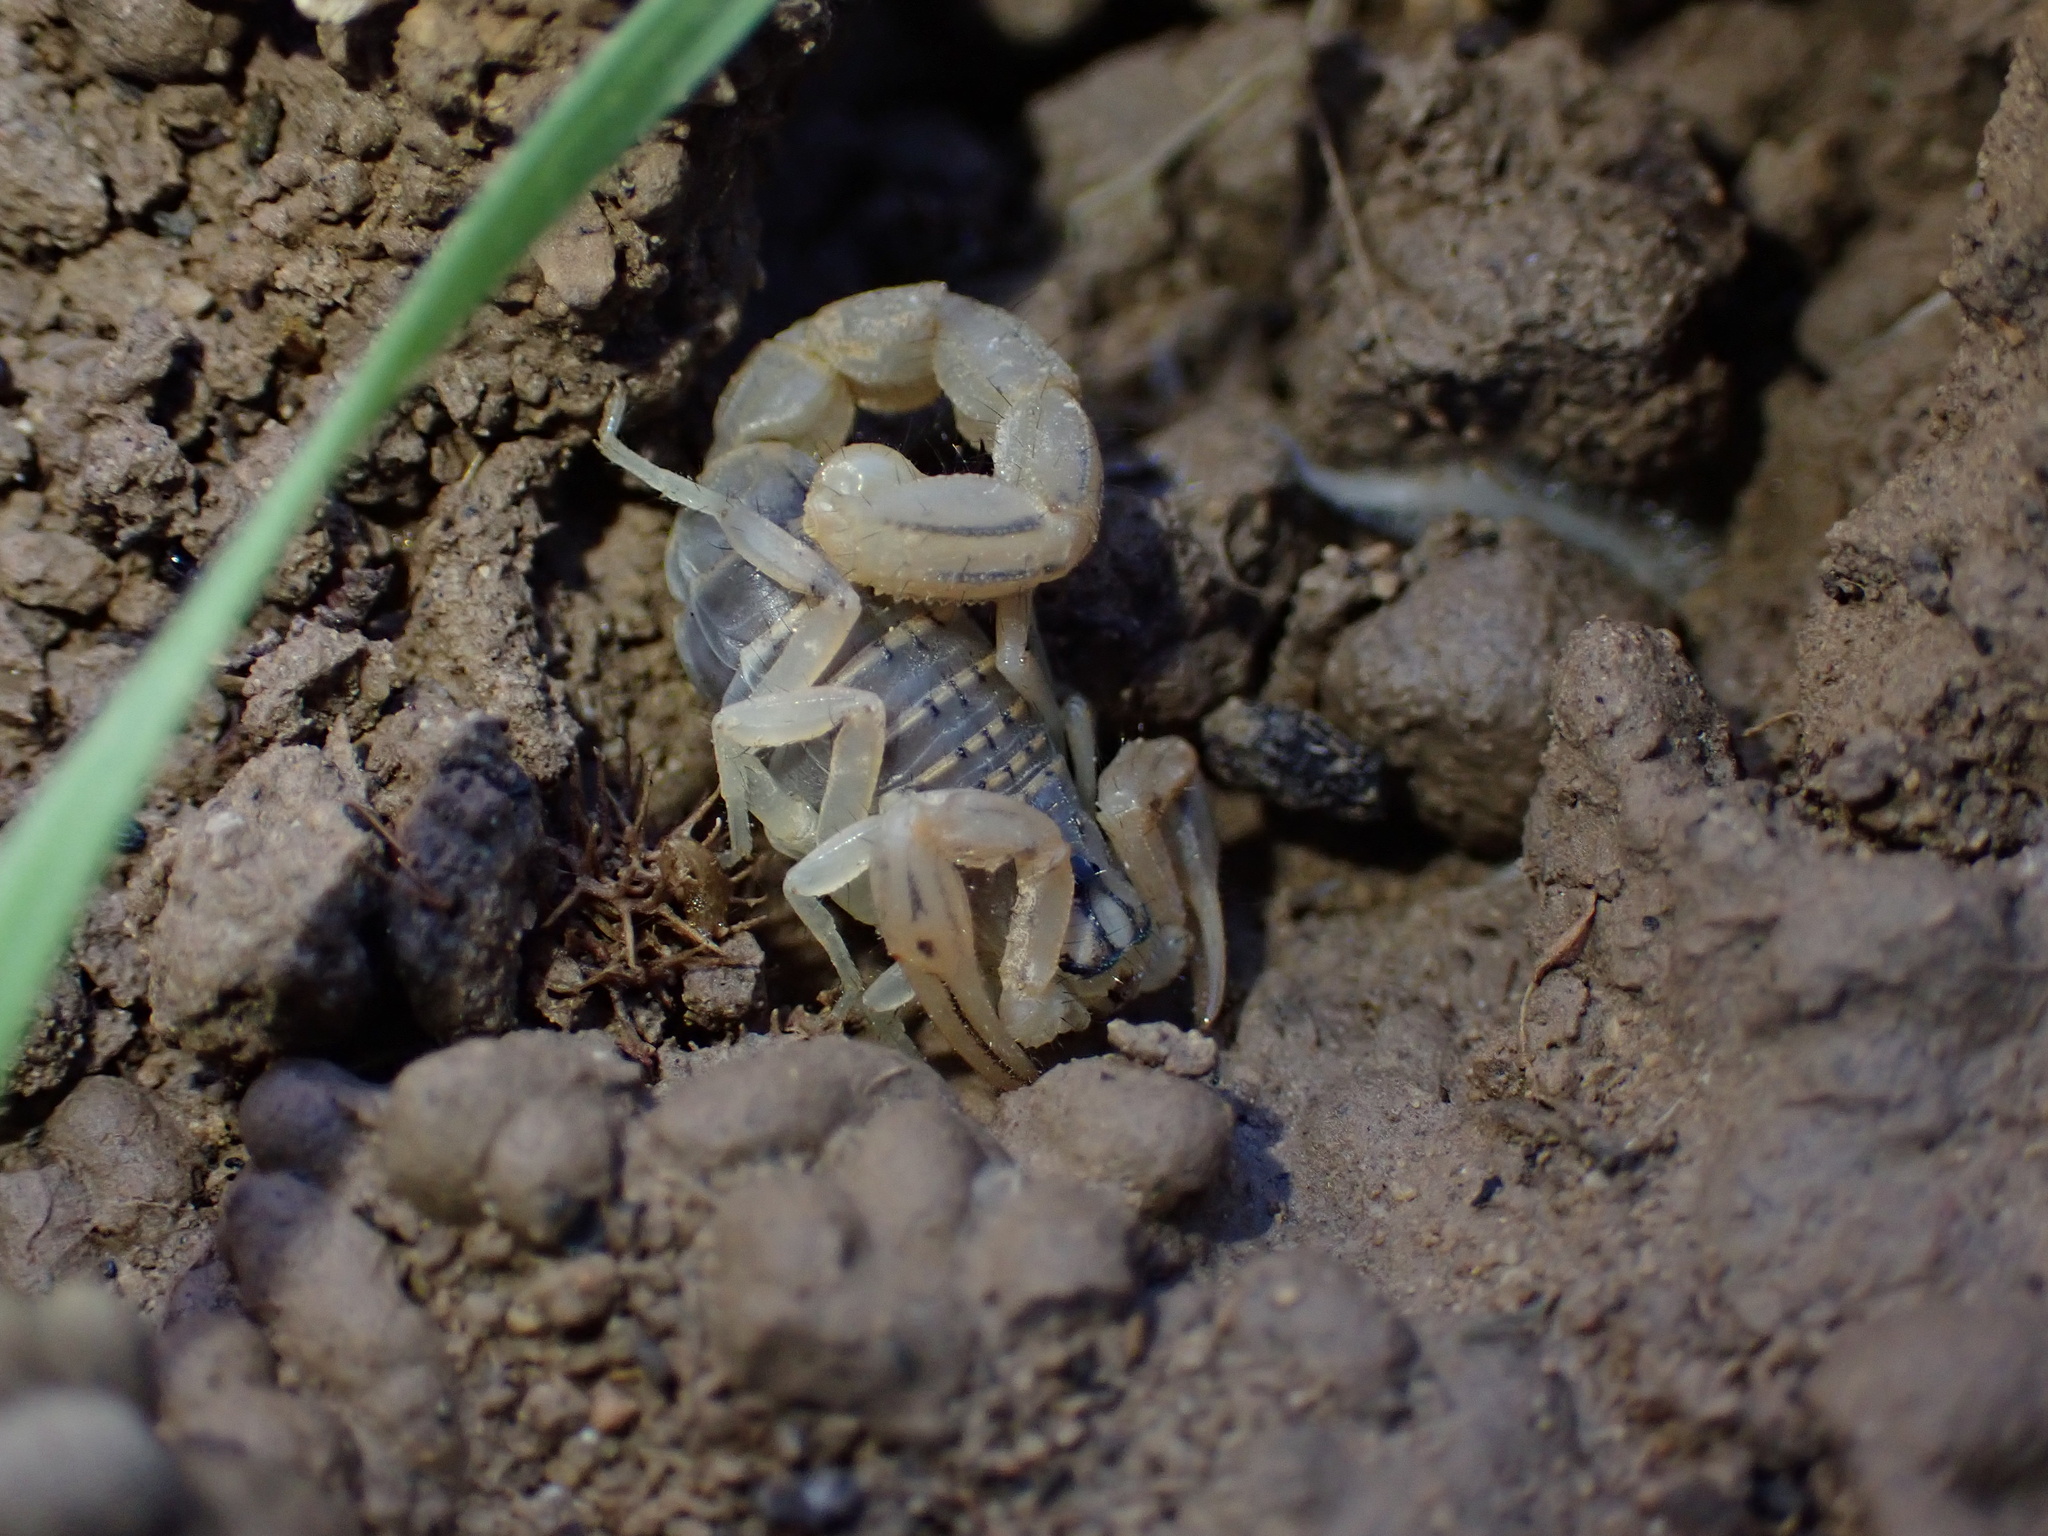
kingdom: Animalia
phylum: Arthropoda
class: Arachnida
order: Scorpiones
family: Buthidae
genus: Mesobuthus
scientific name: Mesobuthus phillipsi
